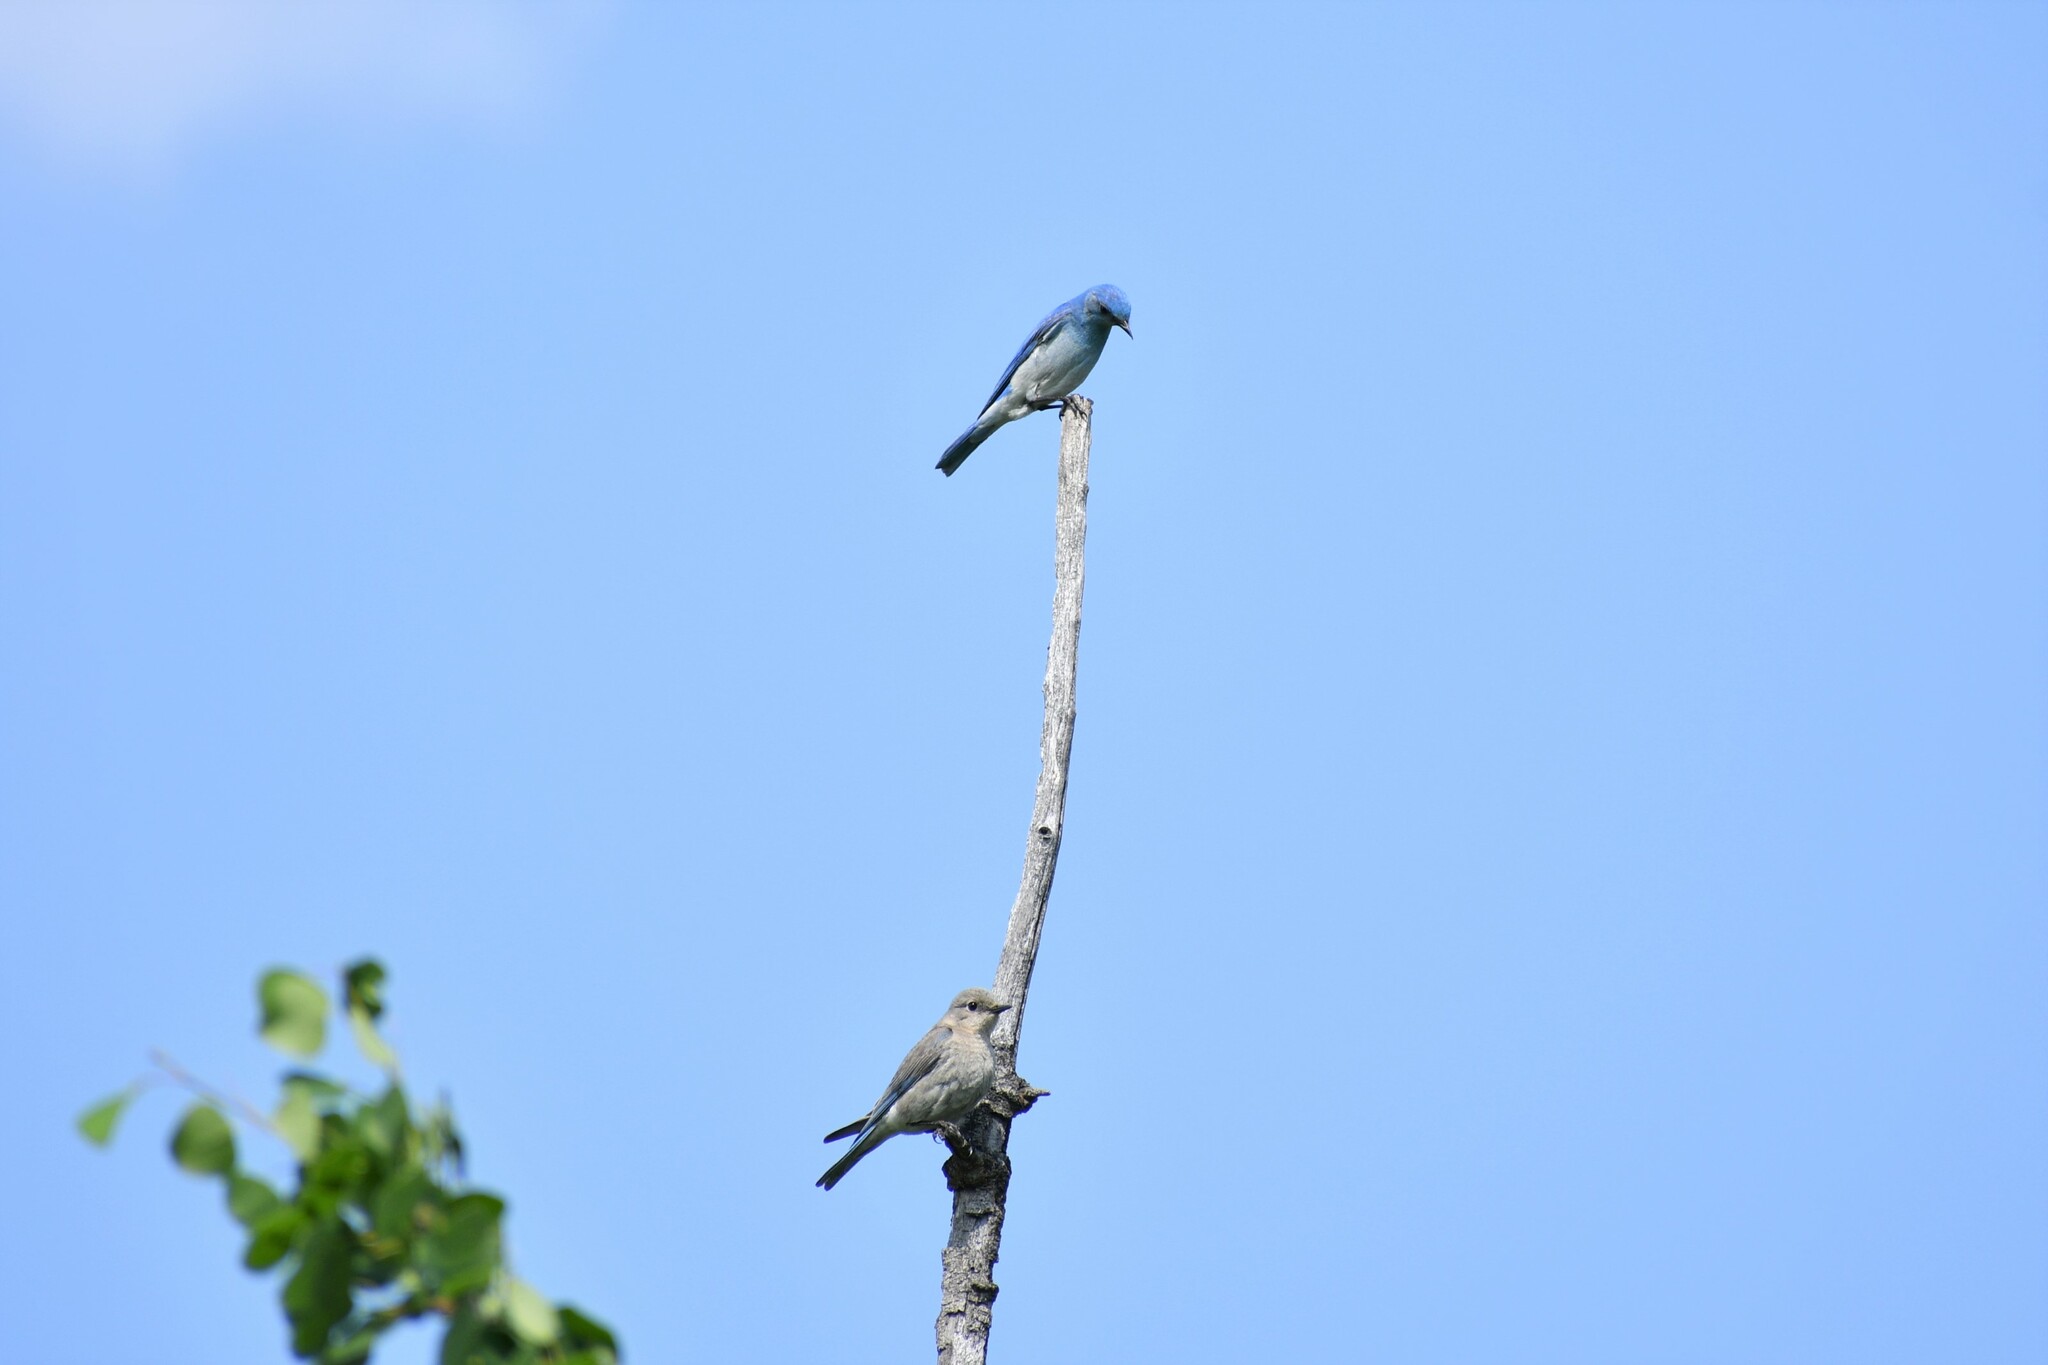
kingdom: Animalia
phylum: Chordata
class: Aves
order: Passeriformes
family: Turdidae
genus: Sialia
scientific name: Sialia currucoides
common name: Mountain bluebird
